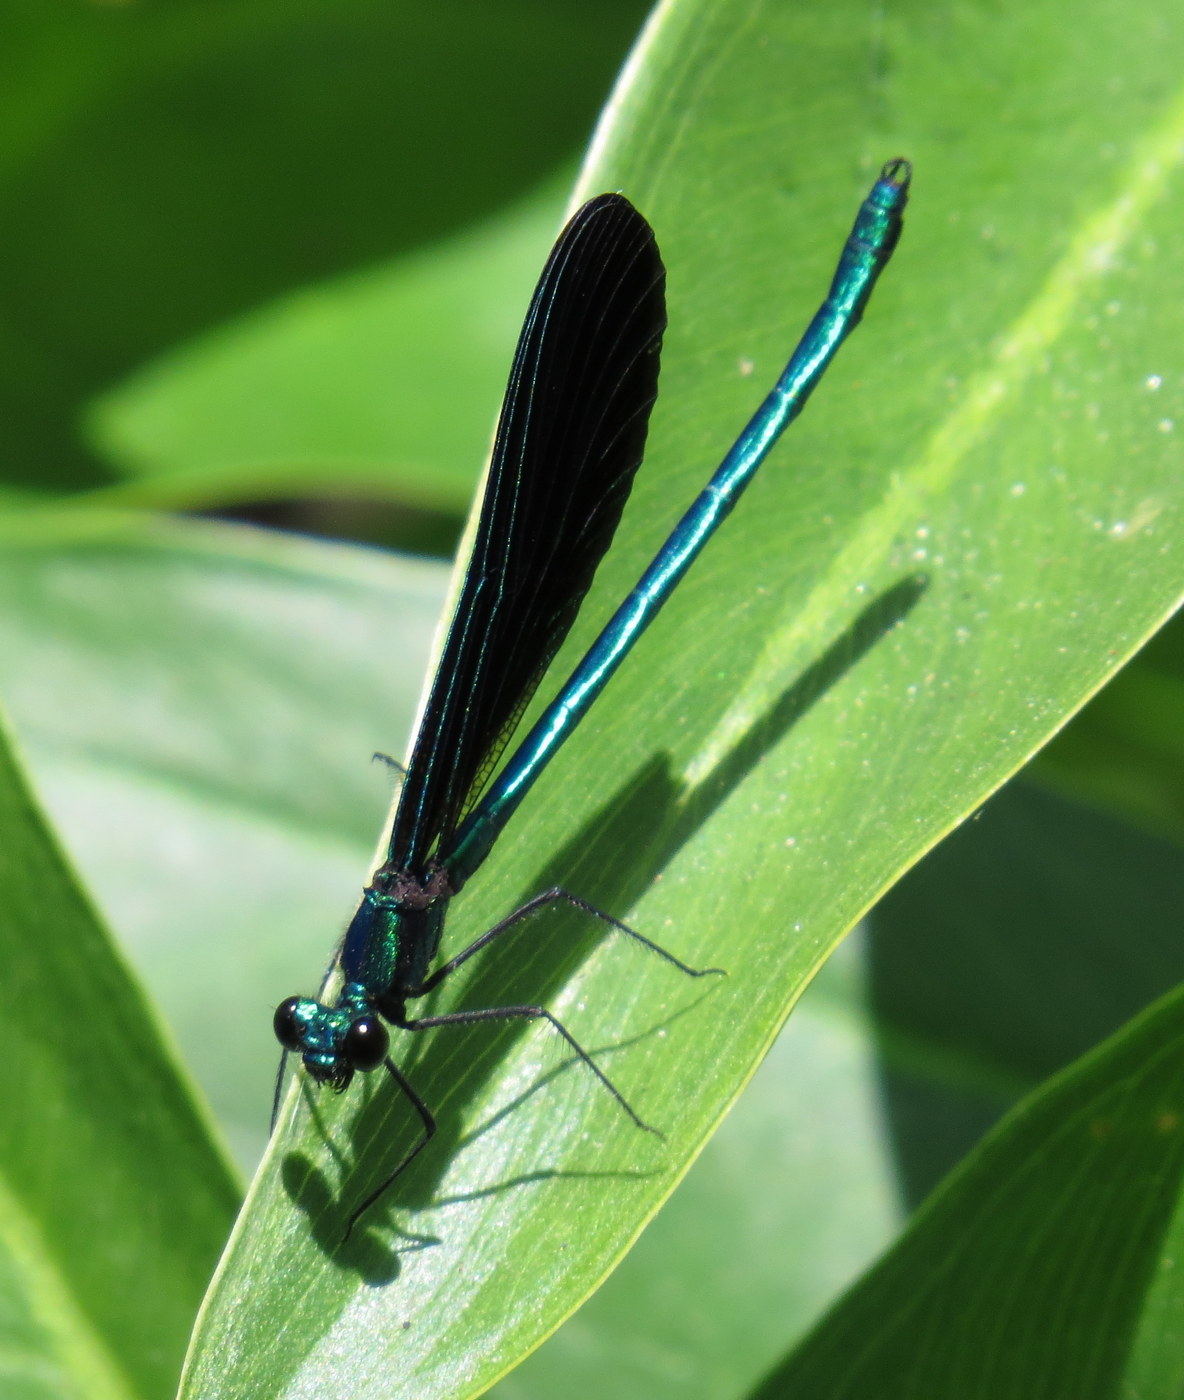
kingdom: Animalia
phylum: Arthropoda
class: Insecta
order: Odonata
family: Calopterygidae
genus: Calopteryx
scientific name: Calopteryx maculata
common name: Ebony jewelwing
